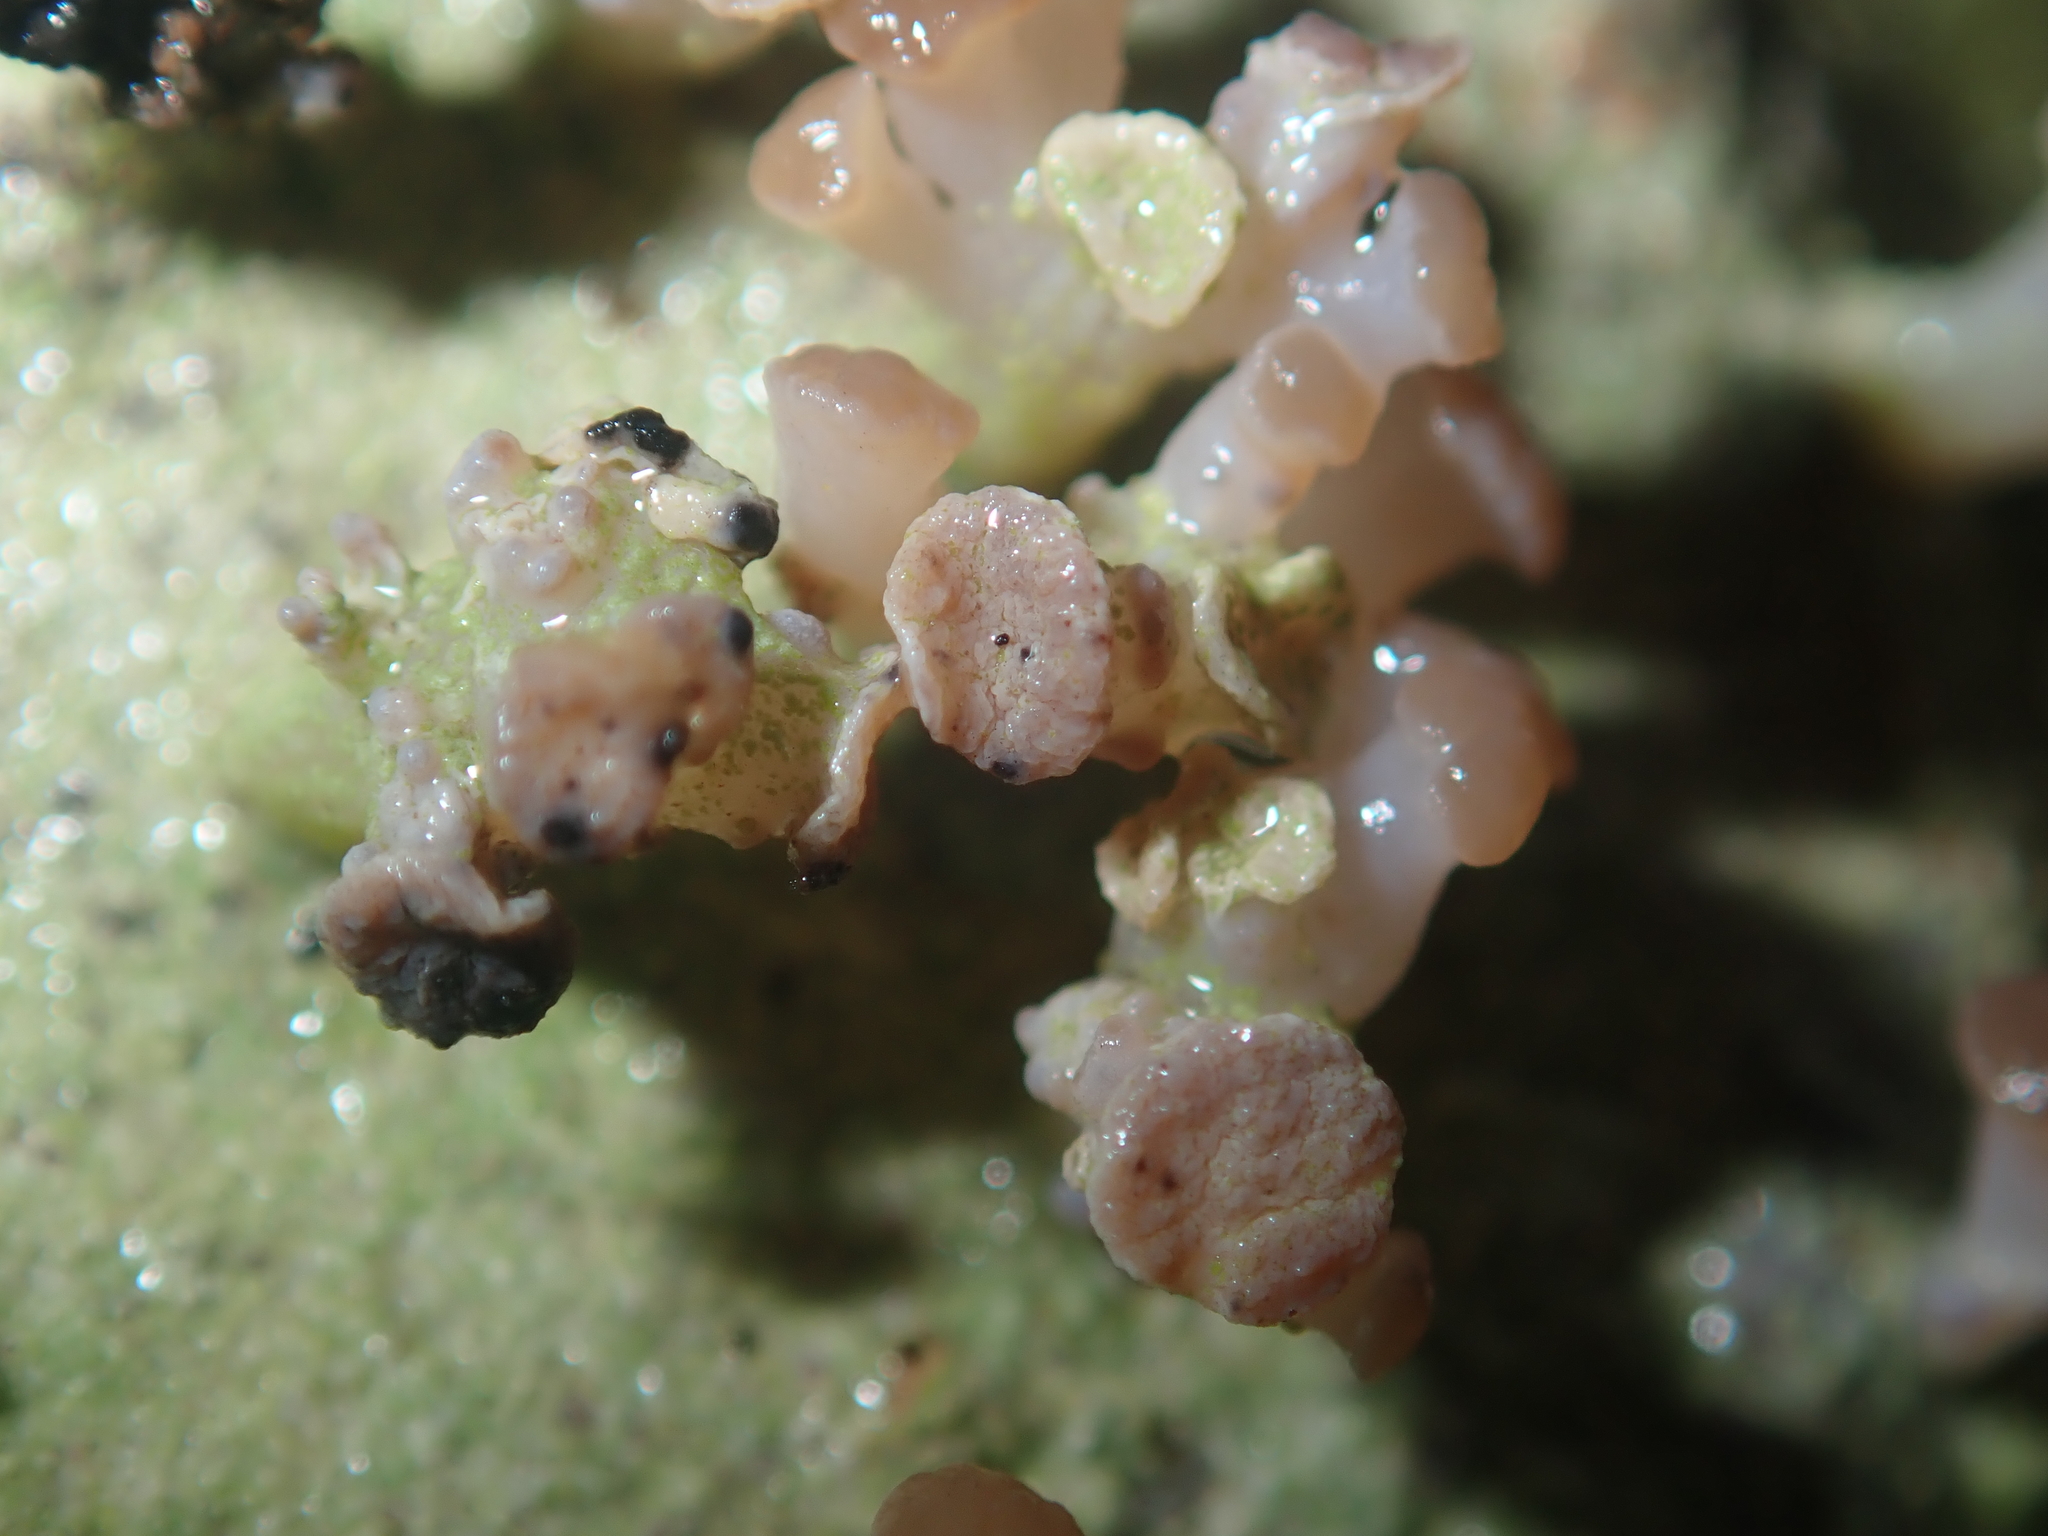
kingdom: Fungi
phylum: Ascomycota
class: Lecanoromycetes
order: Baeomycetales
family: Baeomycetaceae
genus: Baeomyces
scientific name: Baeomyces heteromorphus
